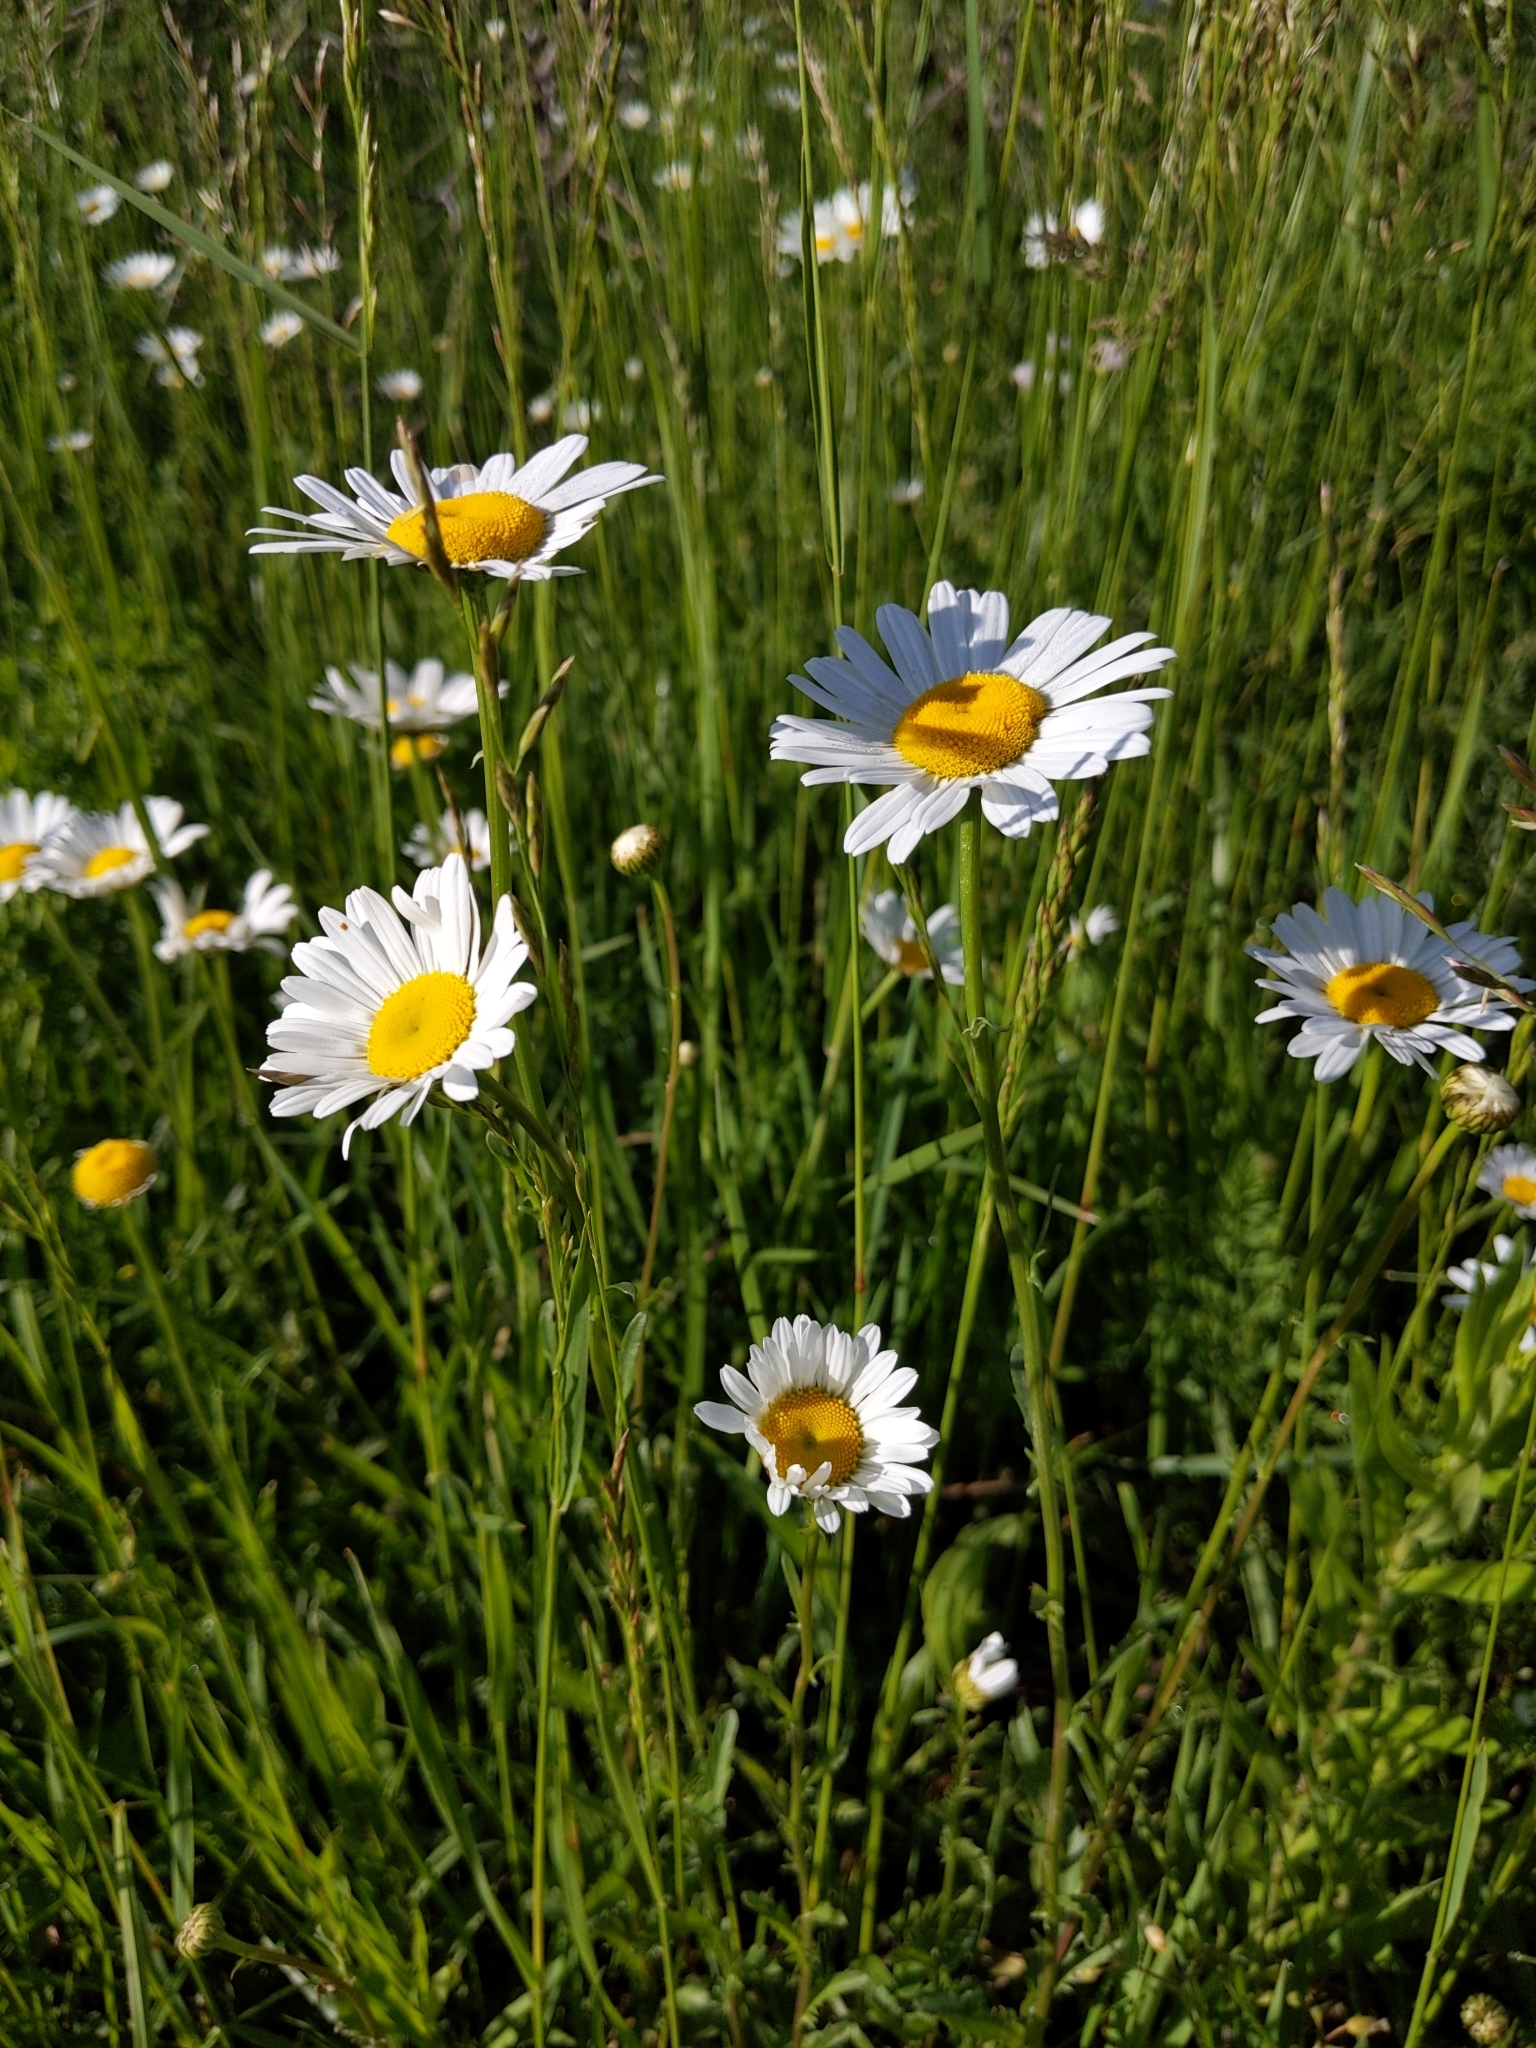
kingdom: Plantae
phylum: Tracheophyta
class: Magnoliopsida
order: Asterales
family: Asteraceae
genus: Leucanthemum
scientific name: Leucanthemum vulgare
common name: Oxeye daisy
